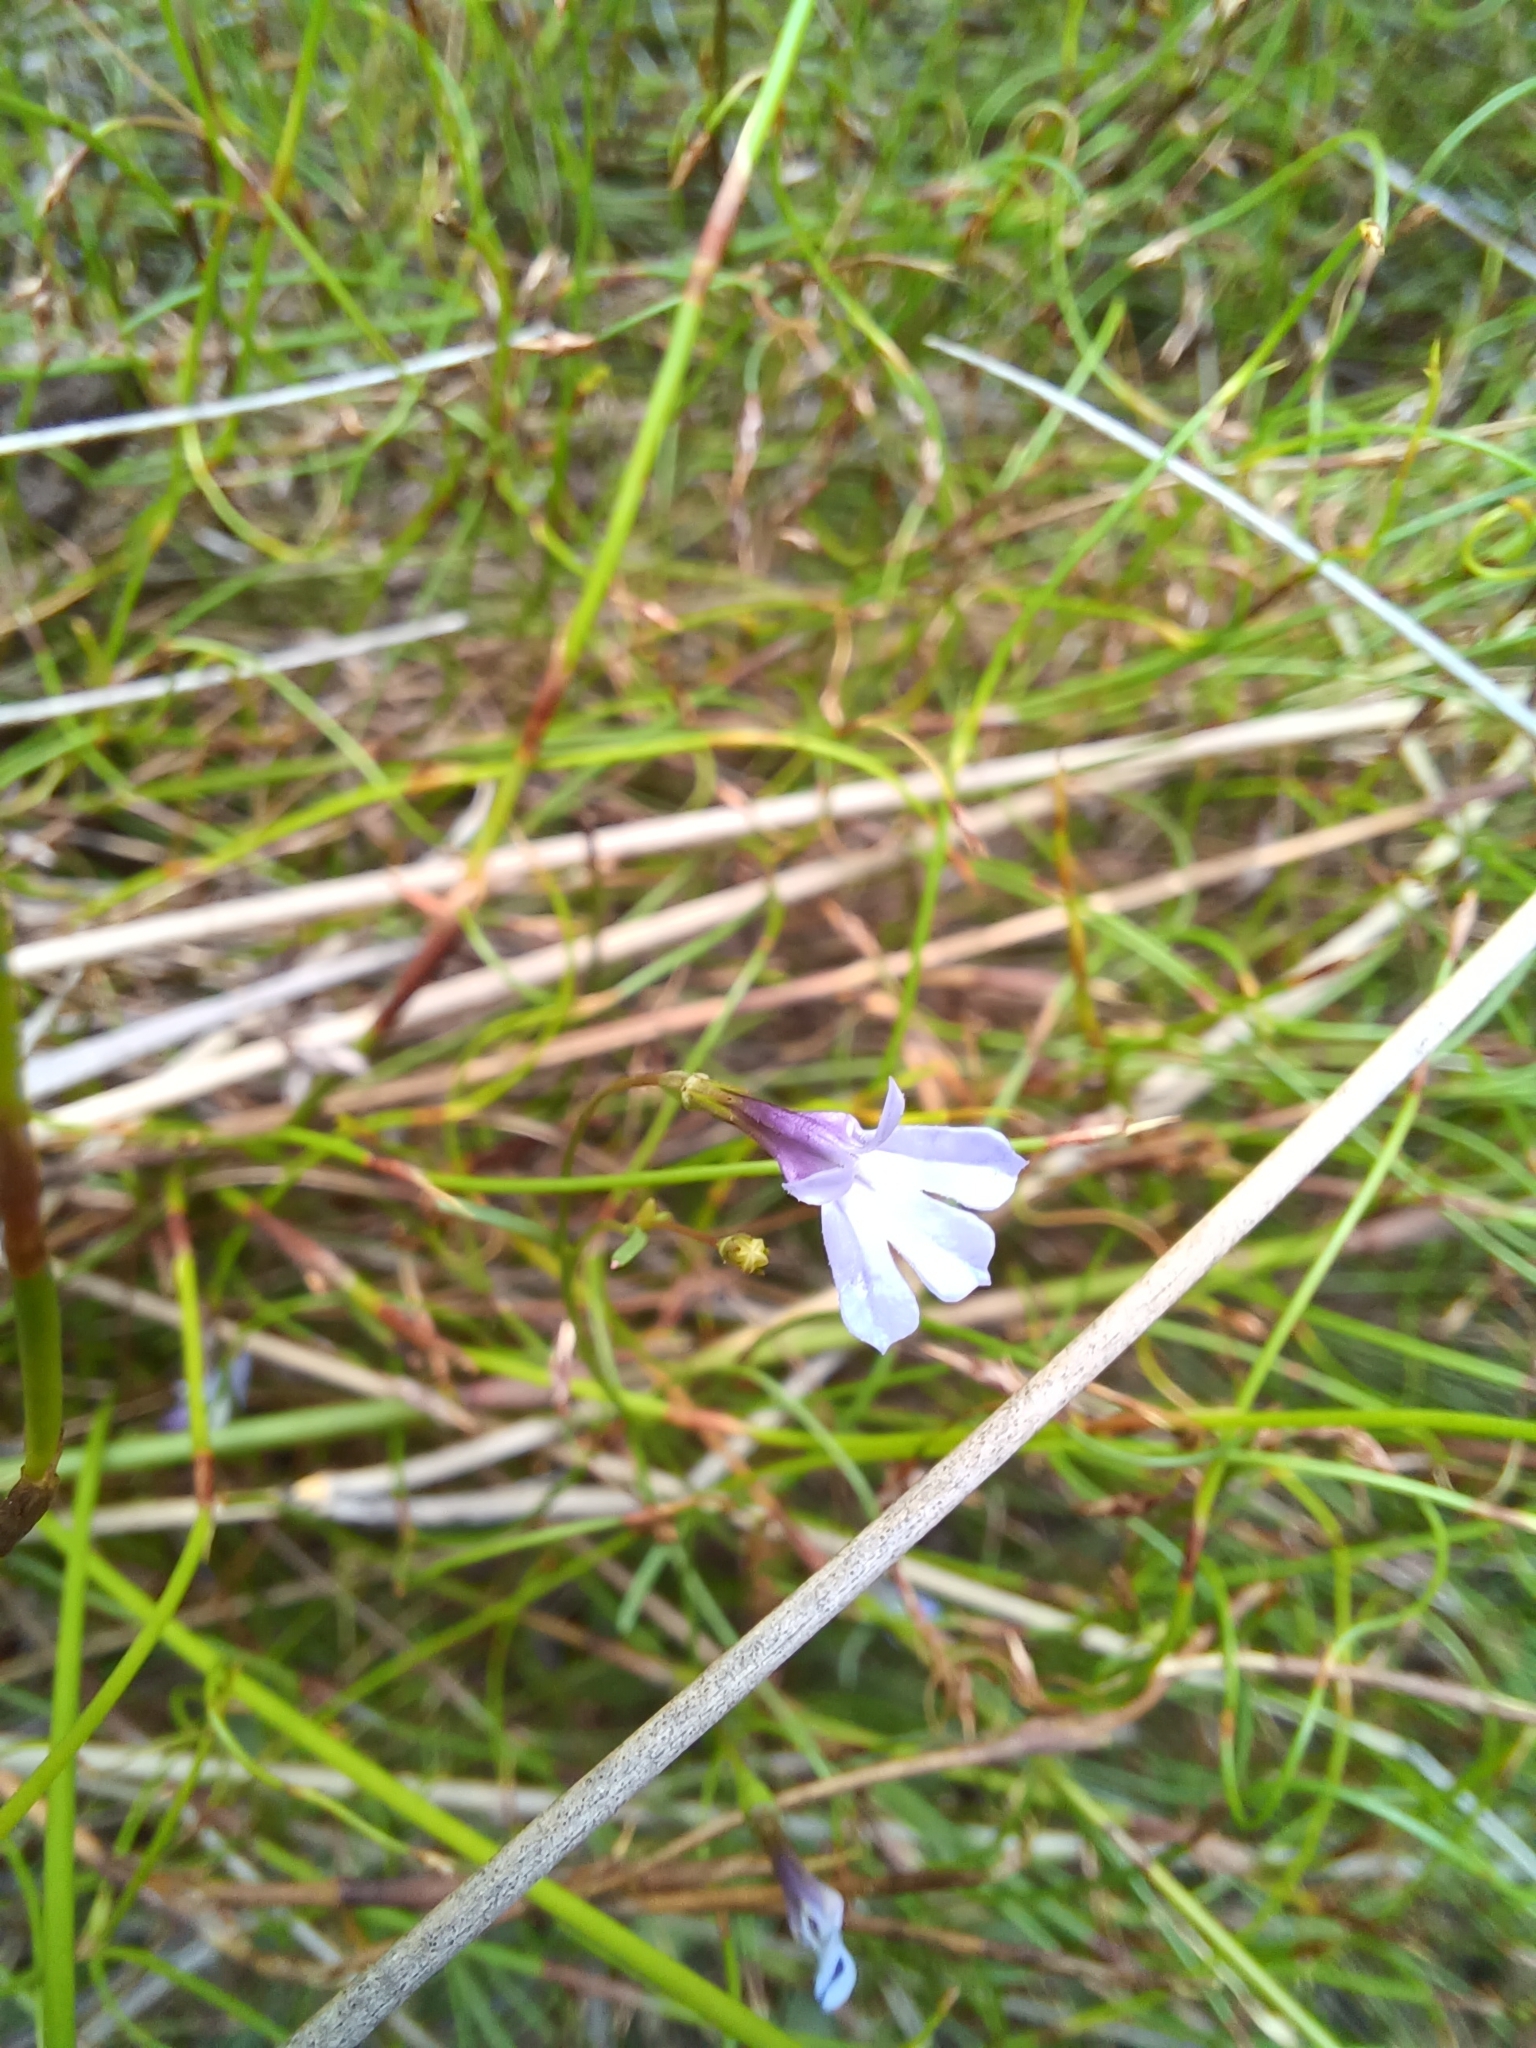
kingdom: Plantae
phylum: Tracheophyta
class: Magnoliopsida
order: Asterales
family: Campanulaceae
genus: Wimmerella
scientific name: Wimmerella arabidea
